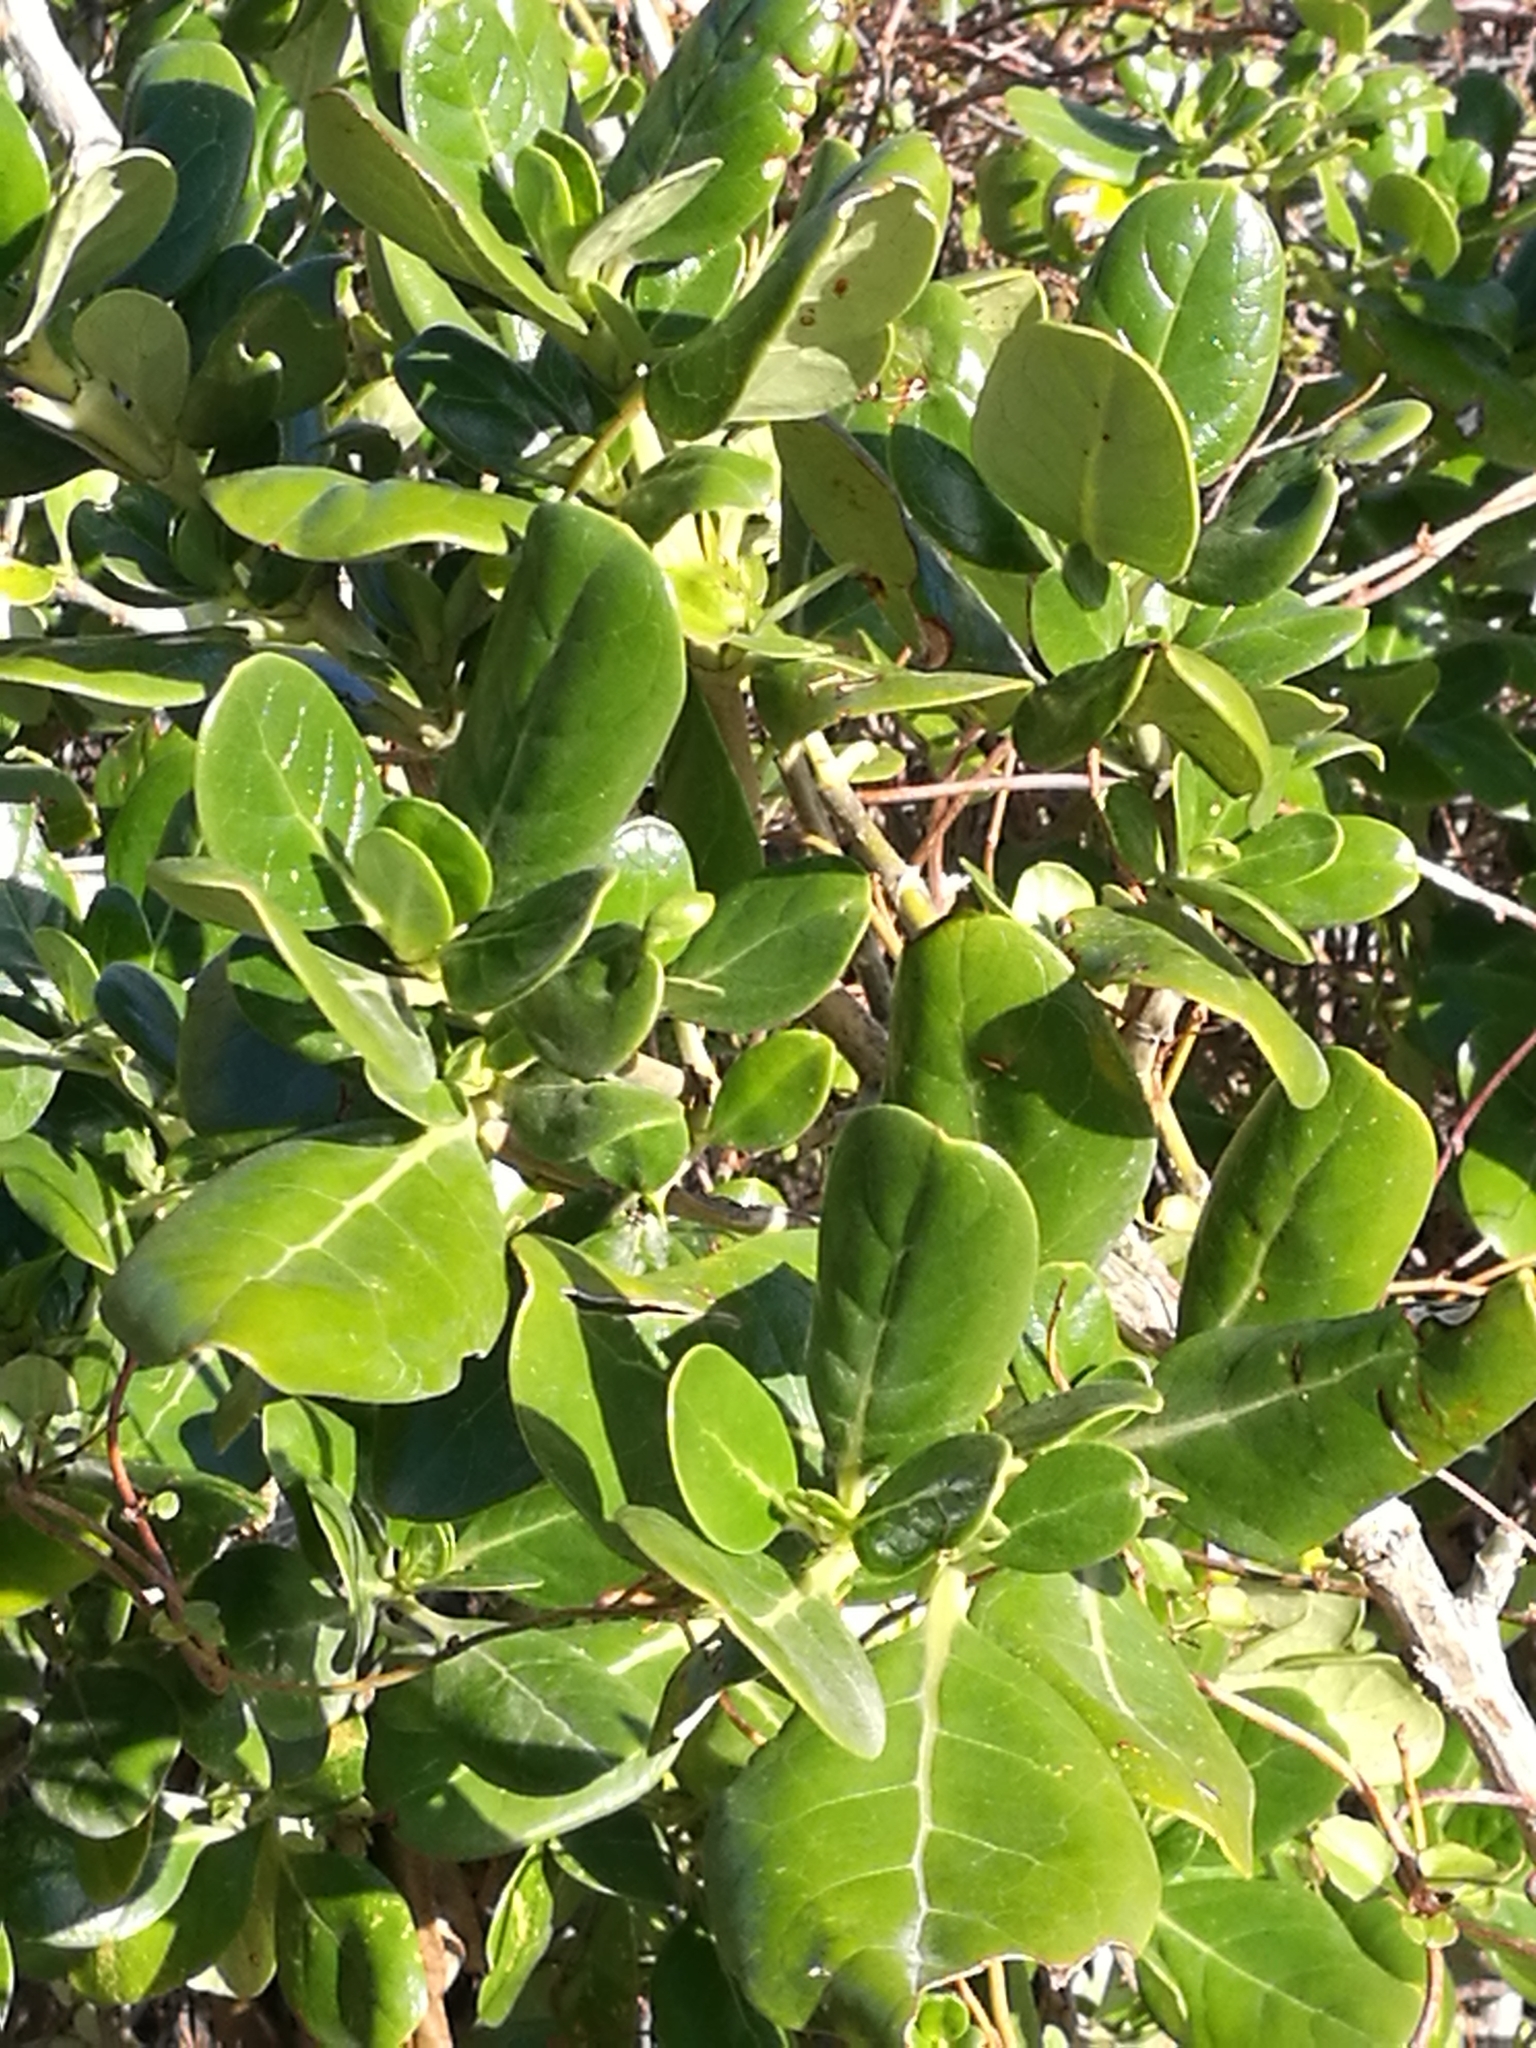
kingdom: Plantae
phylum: Tracheophyta
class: Magnoliopsida
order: Gentianales
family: Rubiaceae
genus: Coprosma
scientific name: Coprosma repens
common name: Tree bedstraw
